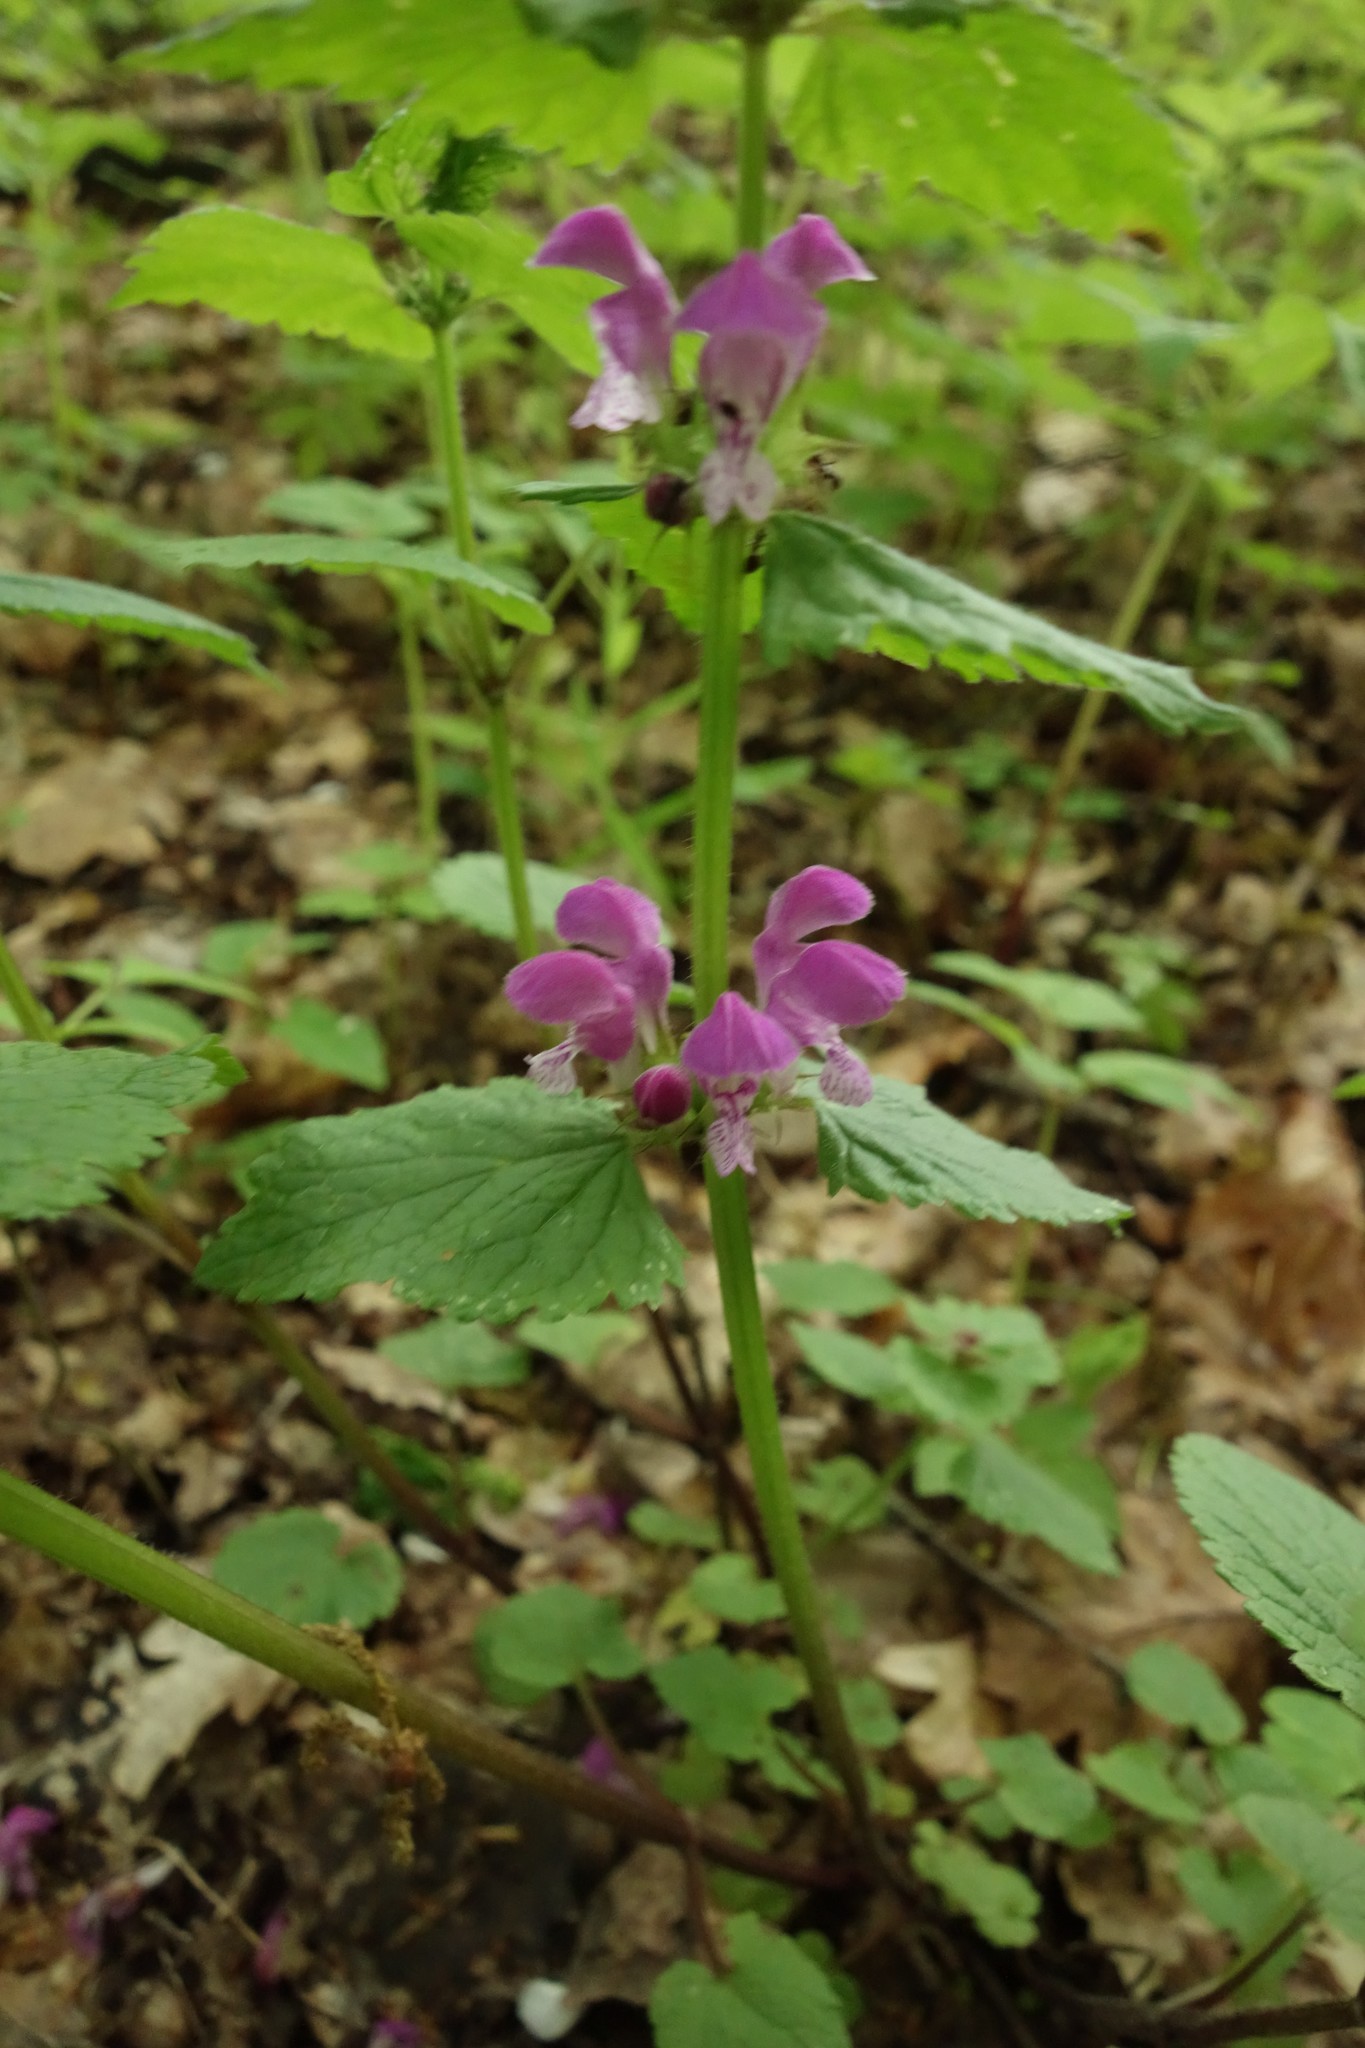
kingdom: Plantae
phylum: Tracheophyta
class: Magnoliopsida
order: Lamiales
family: Lamiaceae
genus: Lamium
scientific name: Lamium maculatum
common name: Spotted dead-nettle
